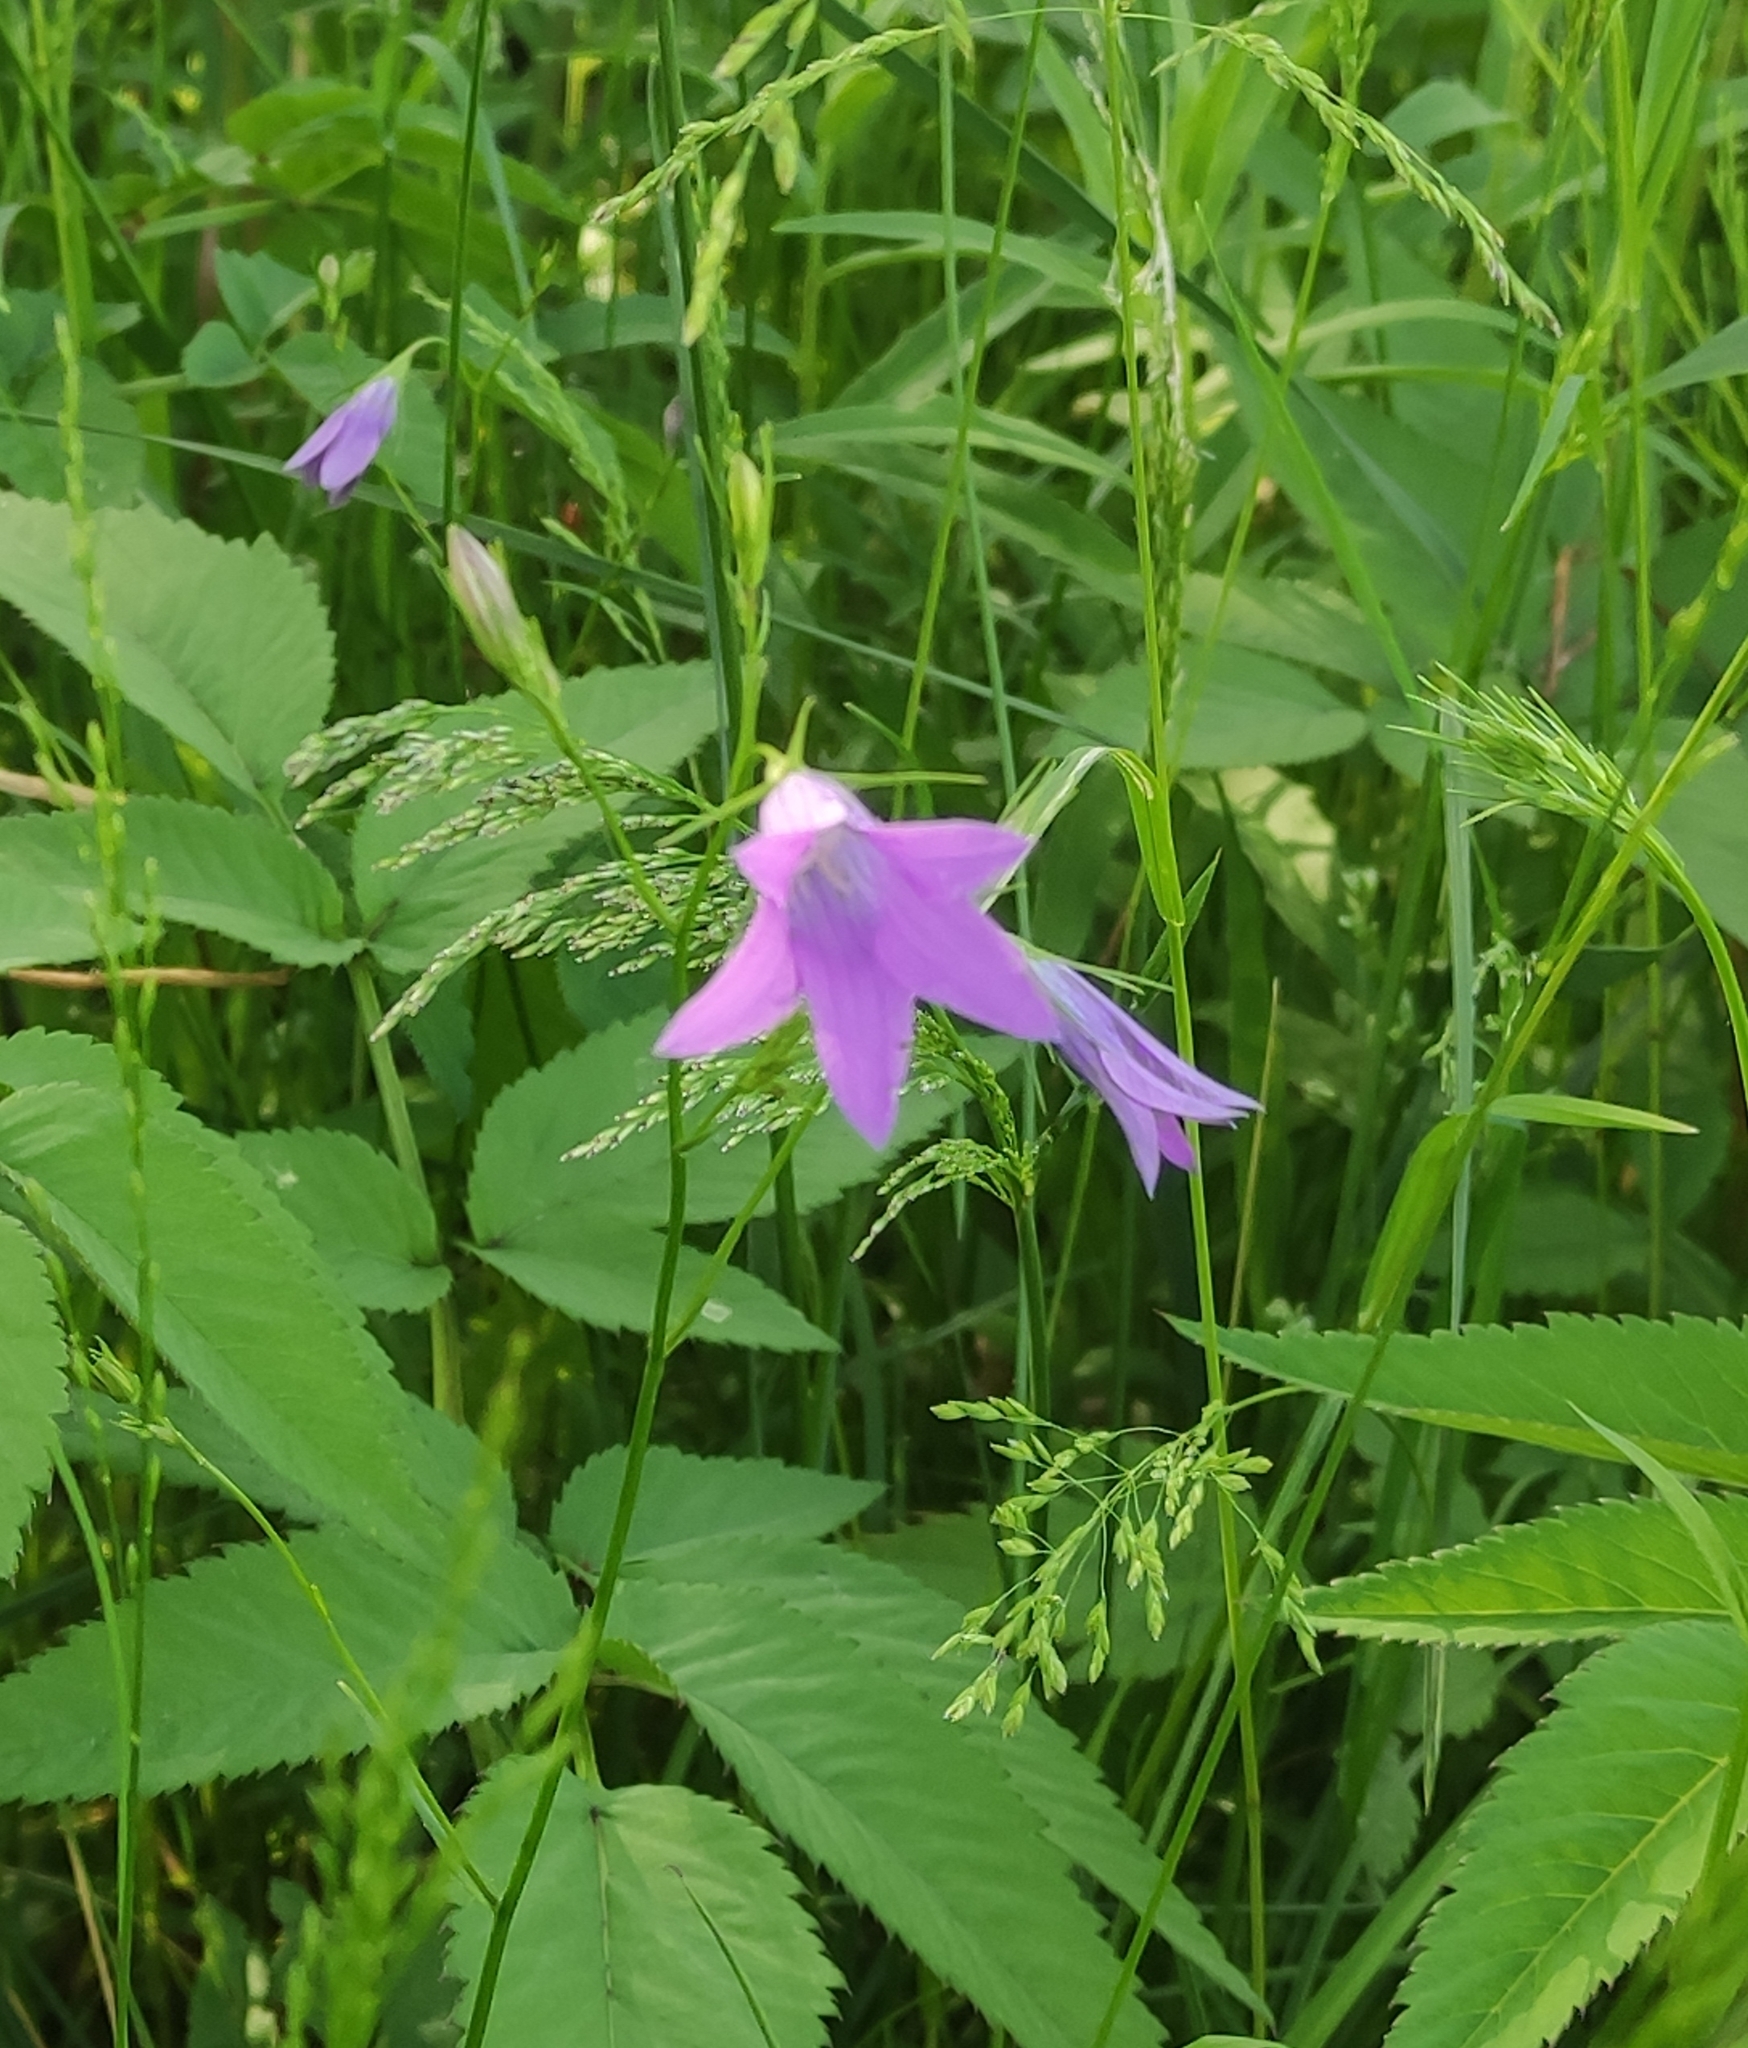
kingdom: Plantae
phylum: Tracheophyta
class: Magnoliopsida
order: Asterales
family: Campanulaceae
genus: Campanula
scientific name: Campanula patula
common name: Spreading bellflower
